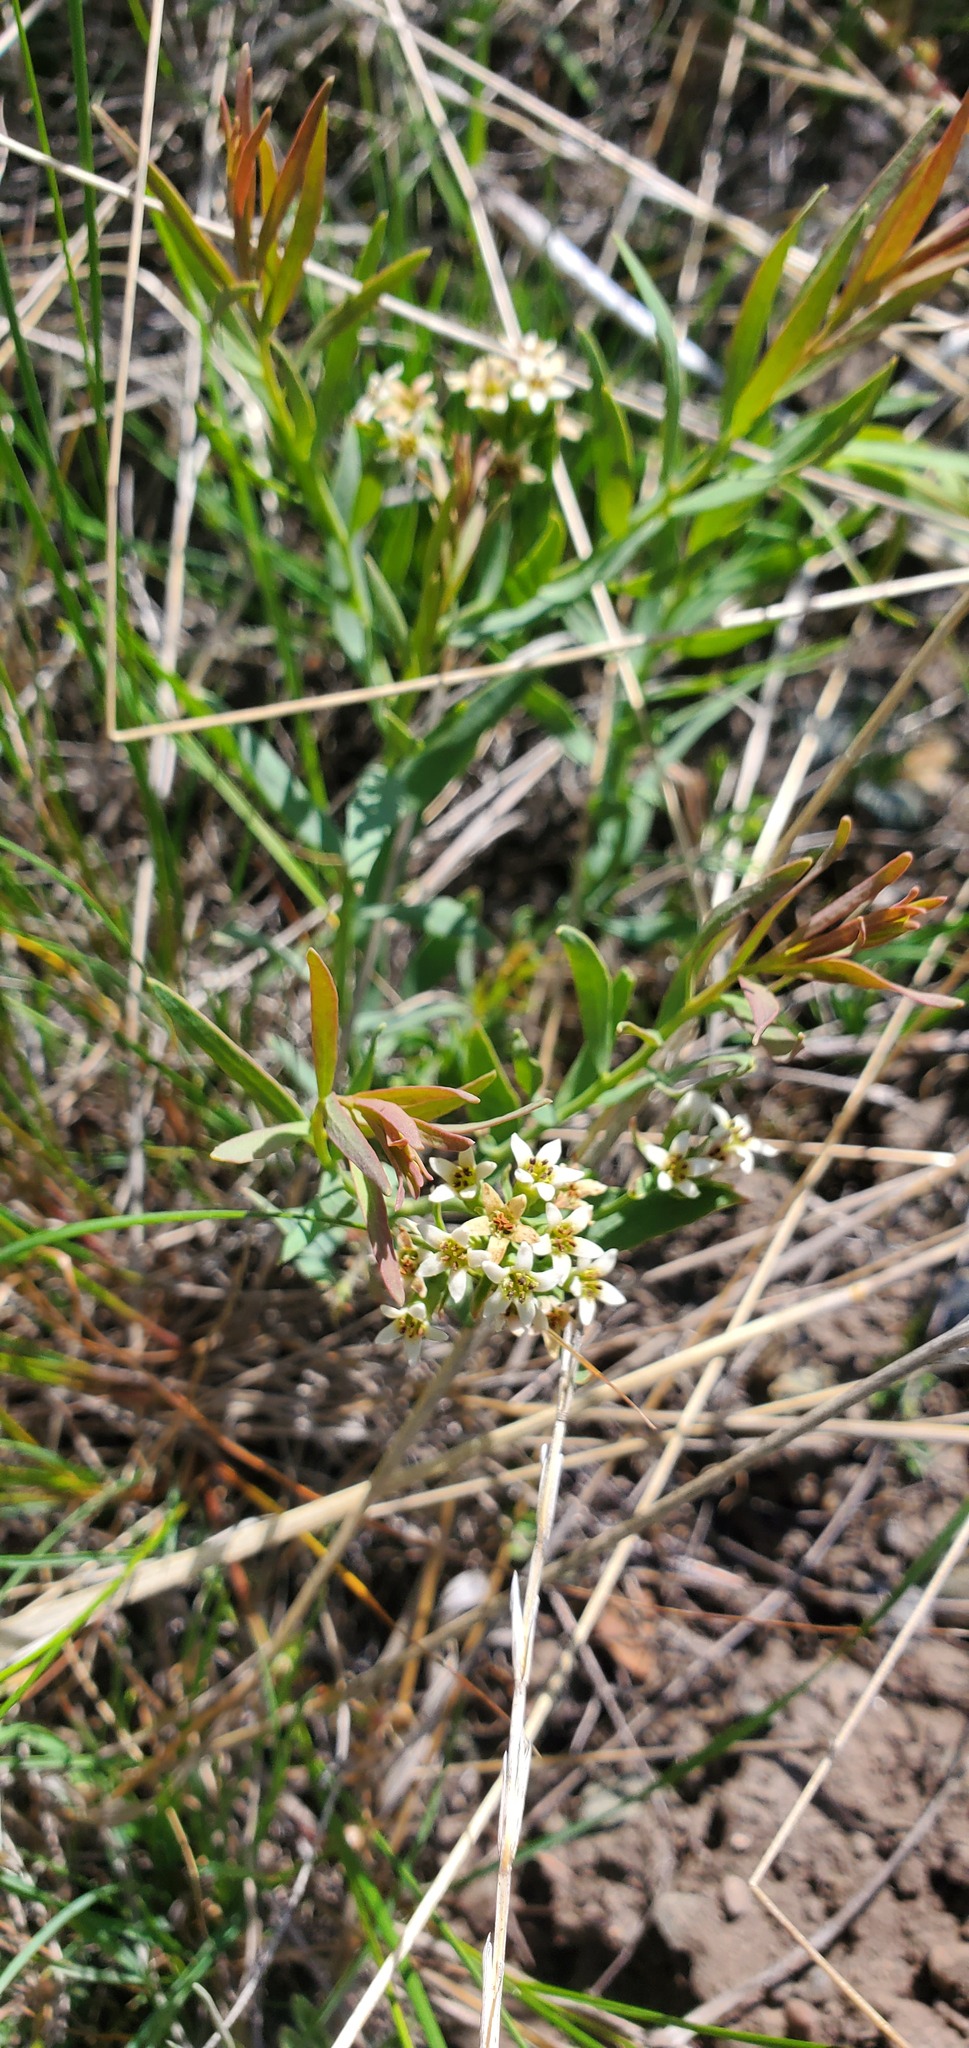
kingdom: Plantae
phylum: Tracheophyta
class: Magnoliopsida
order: Santalales
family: Comandraceae
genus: Comandra
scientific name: Comandra umbellata
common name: Bastard toadflax
